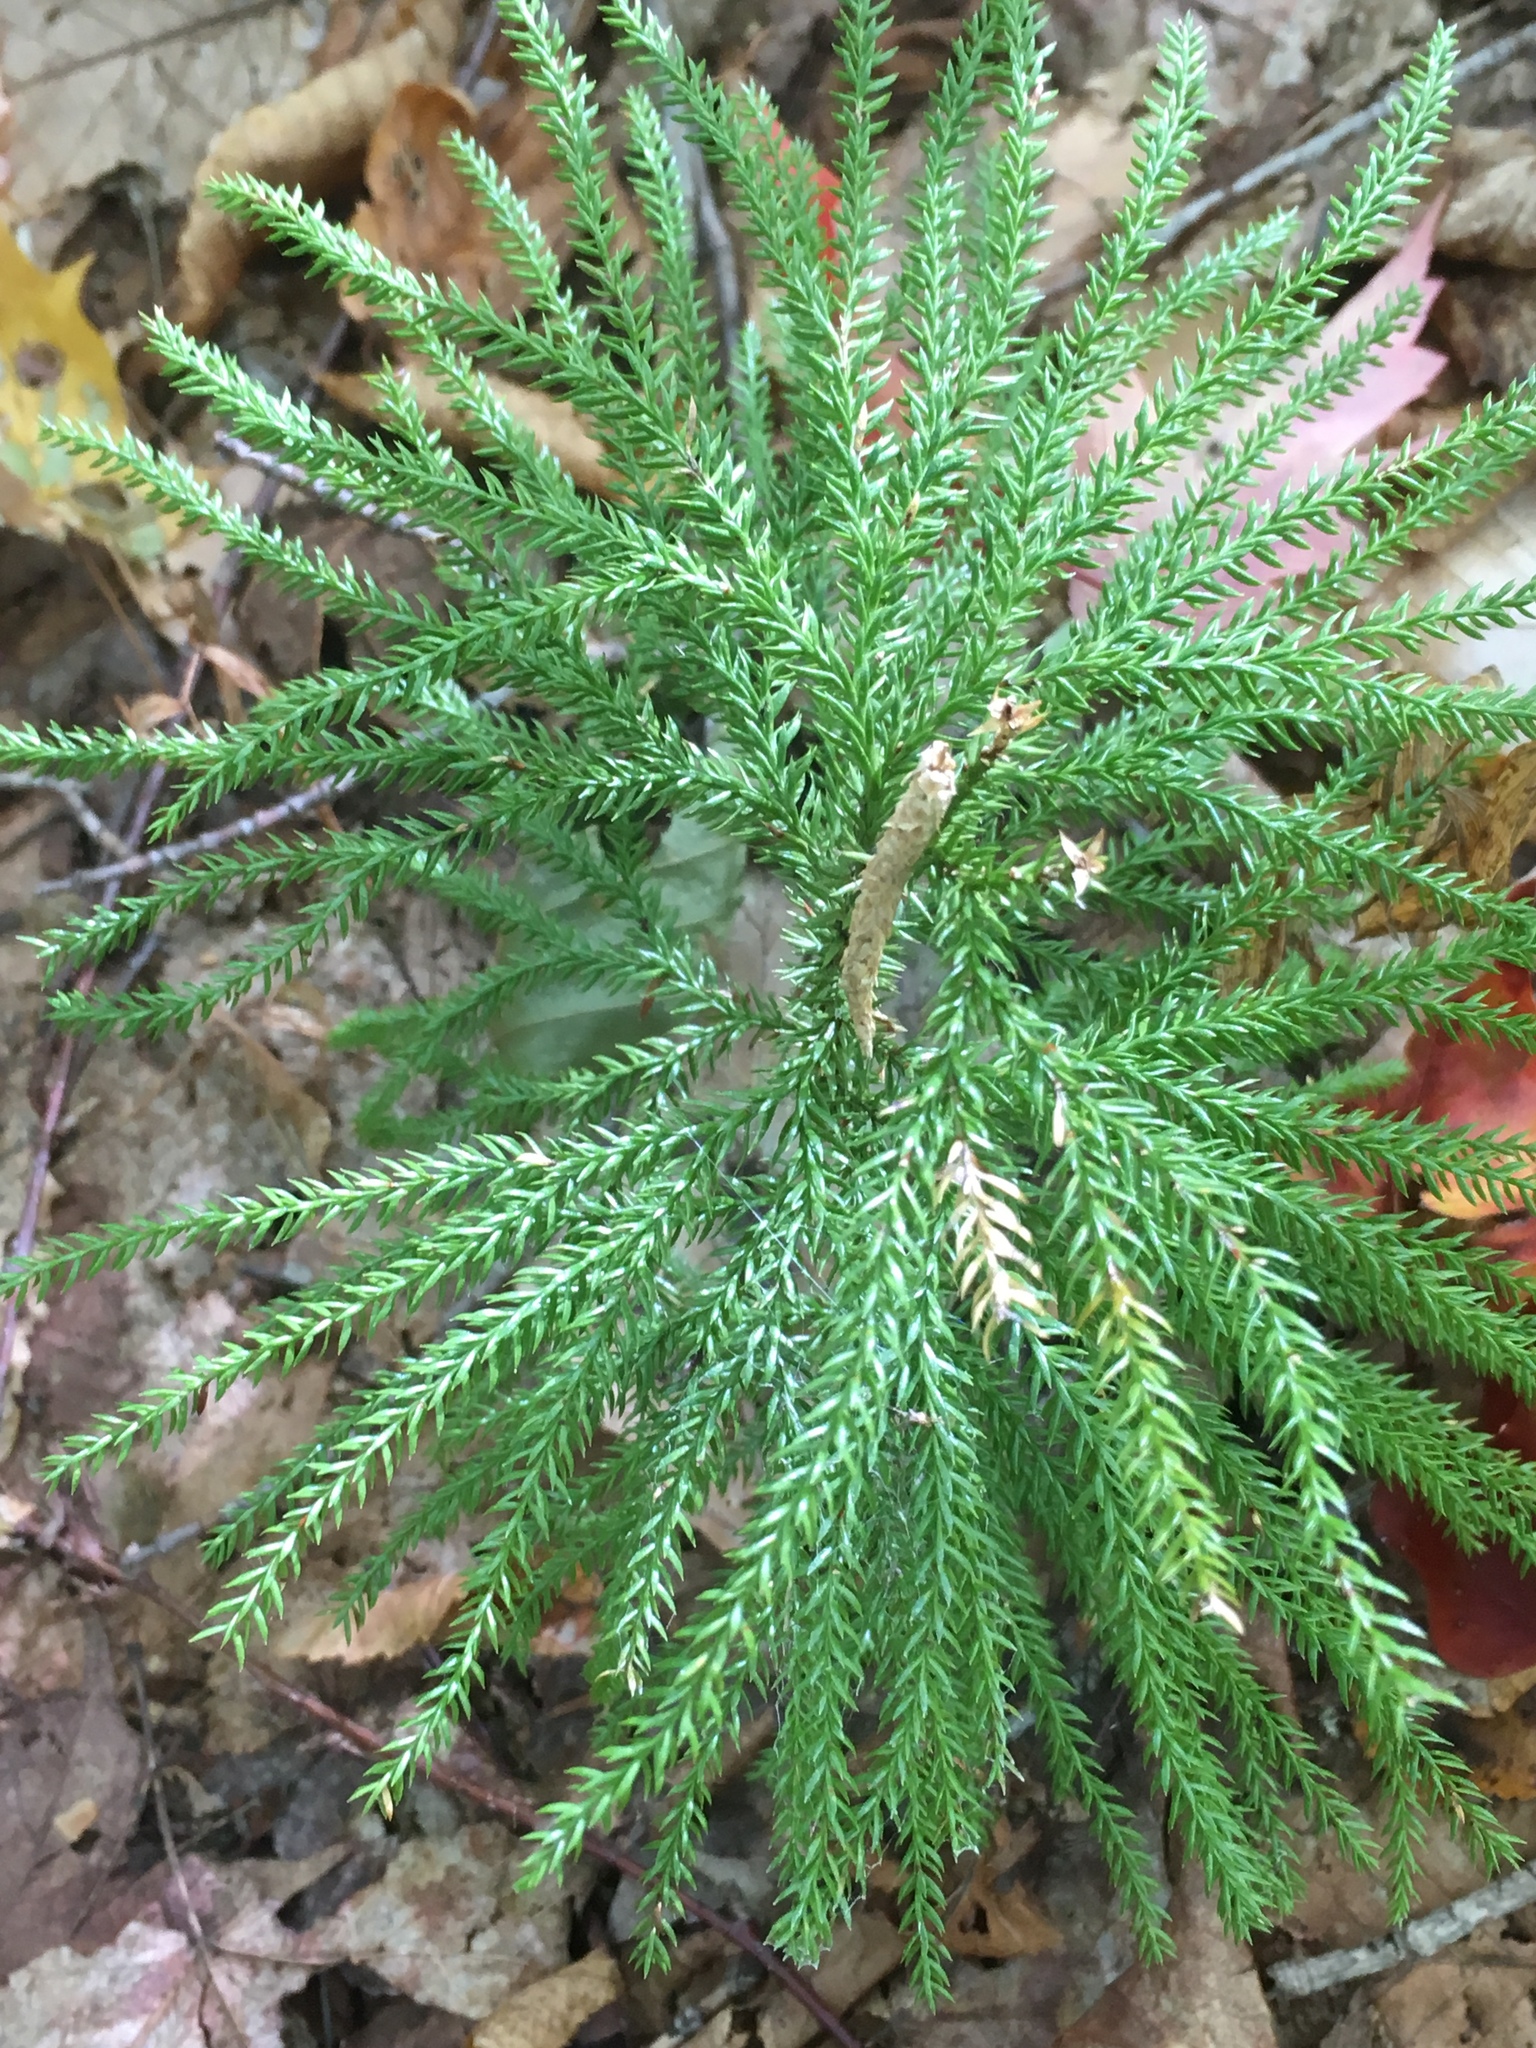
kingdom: Plantae
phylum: Tracheophyta
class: Lycopodiopsida
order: Lycopodiales
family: Lycopodiaceae
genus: Dendrolycopodium
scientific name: Dendrolycopodium dendroideum
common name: Northern tree-clubmoss
